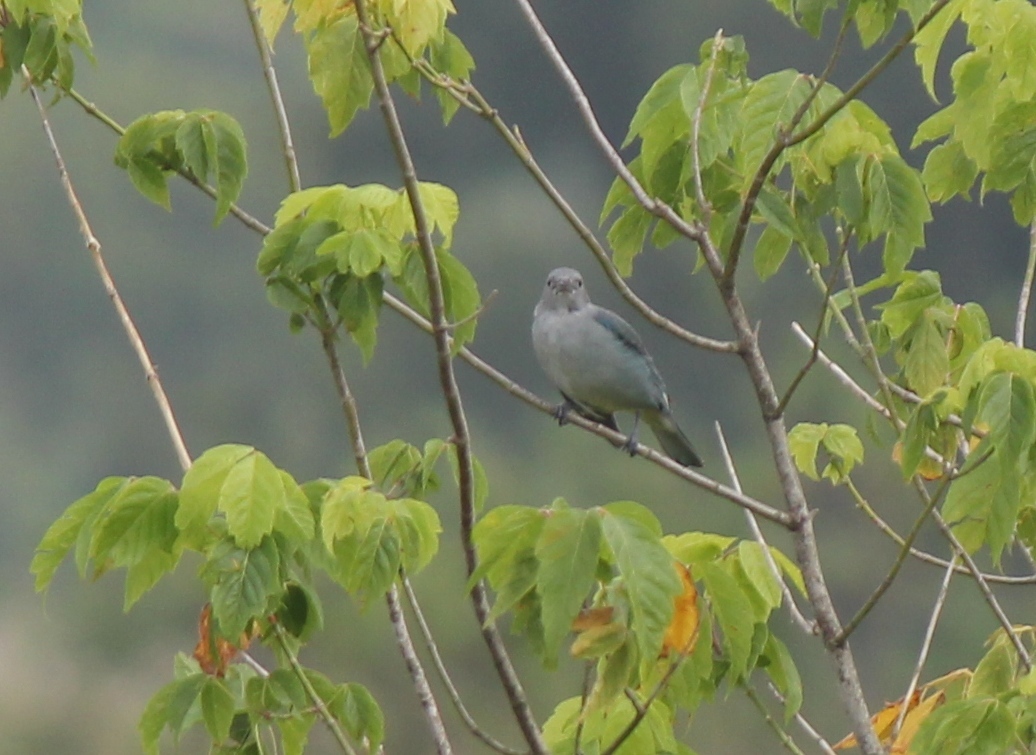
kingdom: Animalia
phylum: Chordata
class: Aves
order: Passeriformes
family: Thraupidae
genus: Thraupis
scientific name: Thraupis sayaca
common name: Sayaca tanager
